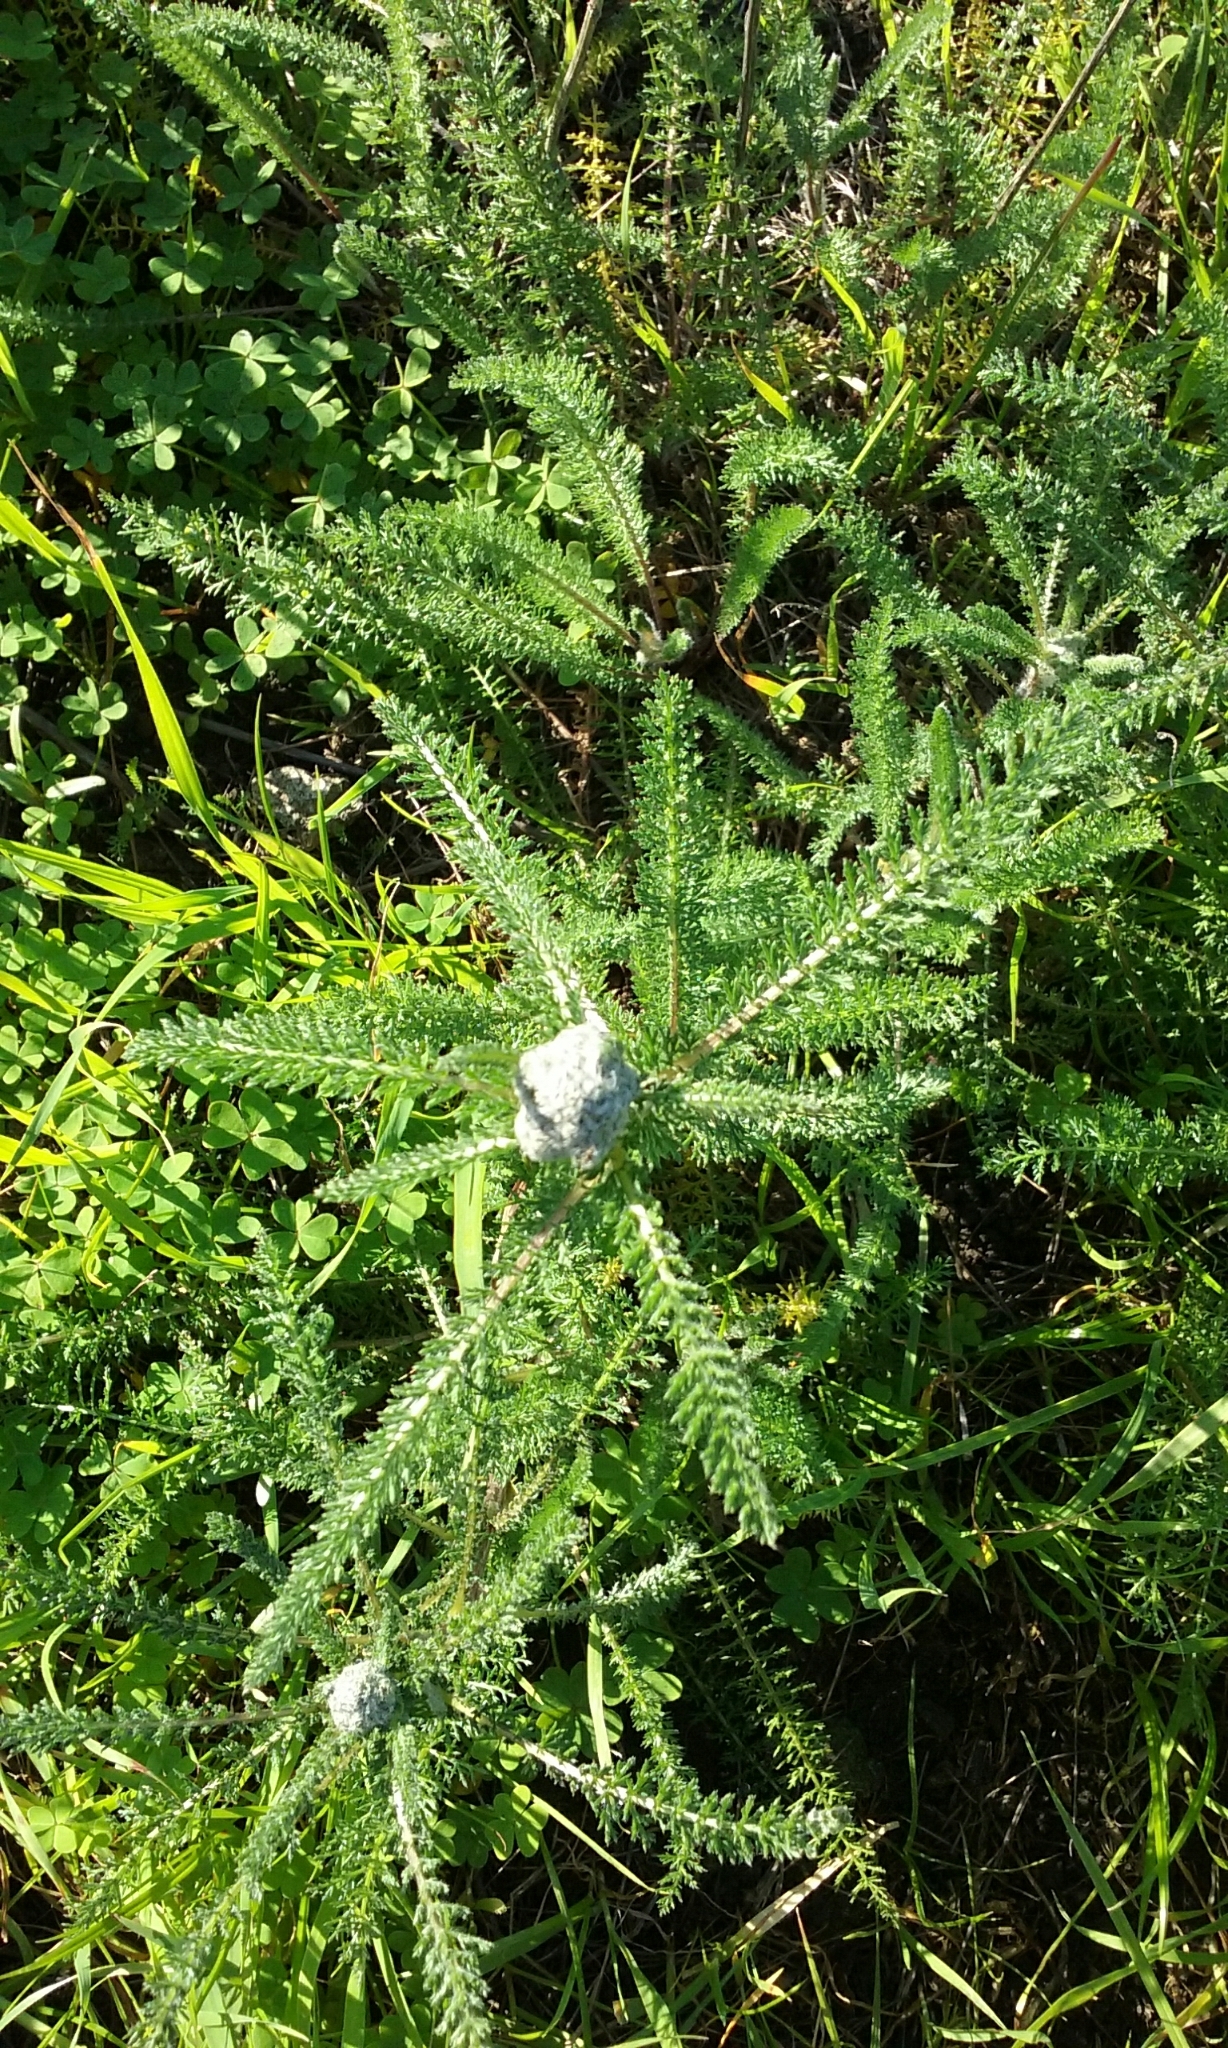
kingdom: Plantae
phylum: Tracheophyta
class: Magnoliopsida
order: Asterales
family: Asteraceae
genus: Achillea
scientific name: Achillea millefolium
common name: Yarrow
